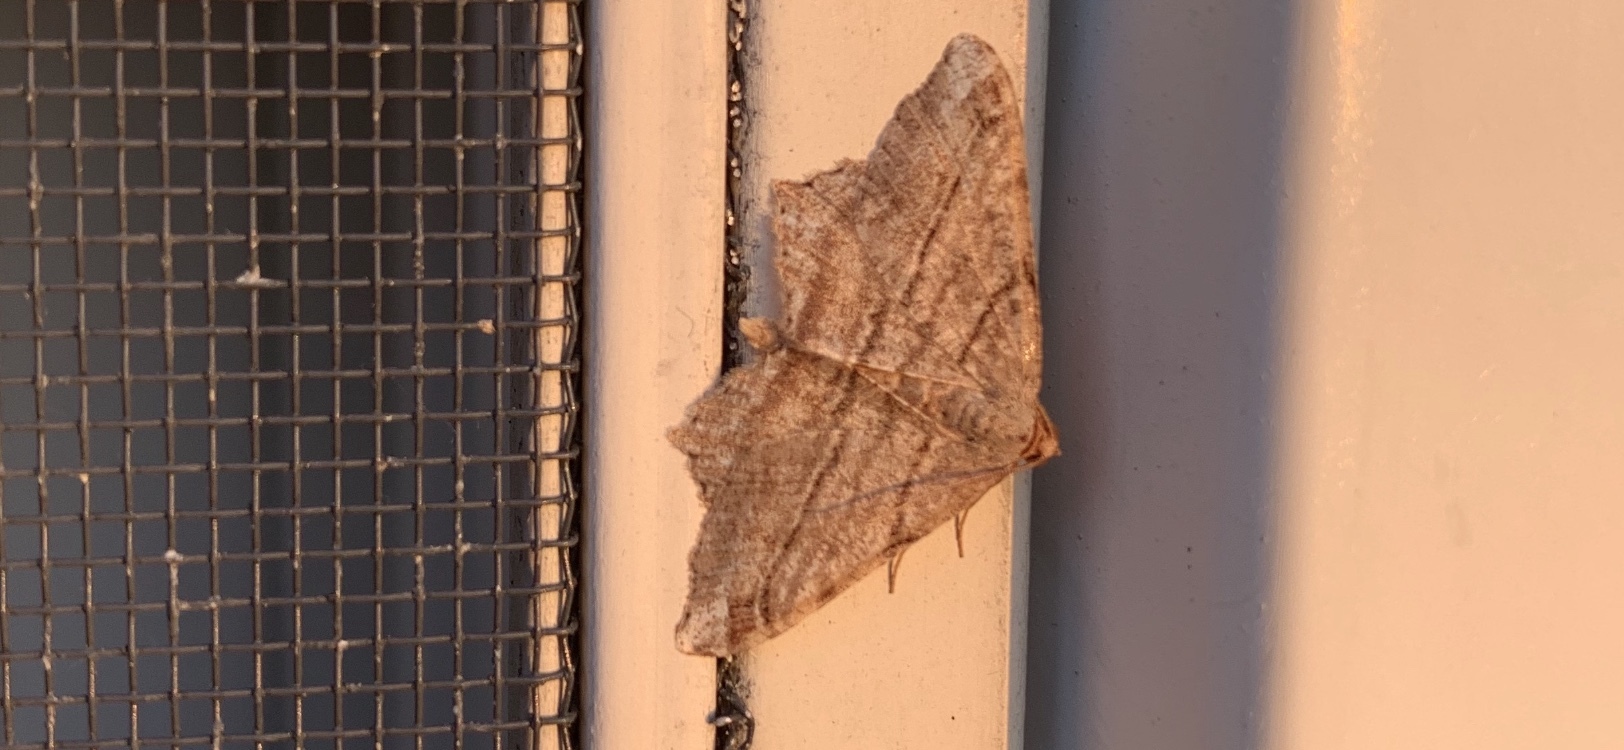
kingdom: Animalia
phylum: Arthropoda
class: Insecta
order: Lepidoptera
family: Geometridae
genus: Macaria
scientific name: Macaria multilineata
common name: Many-lined angle
